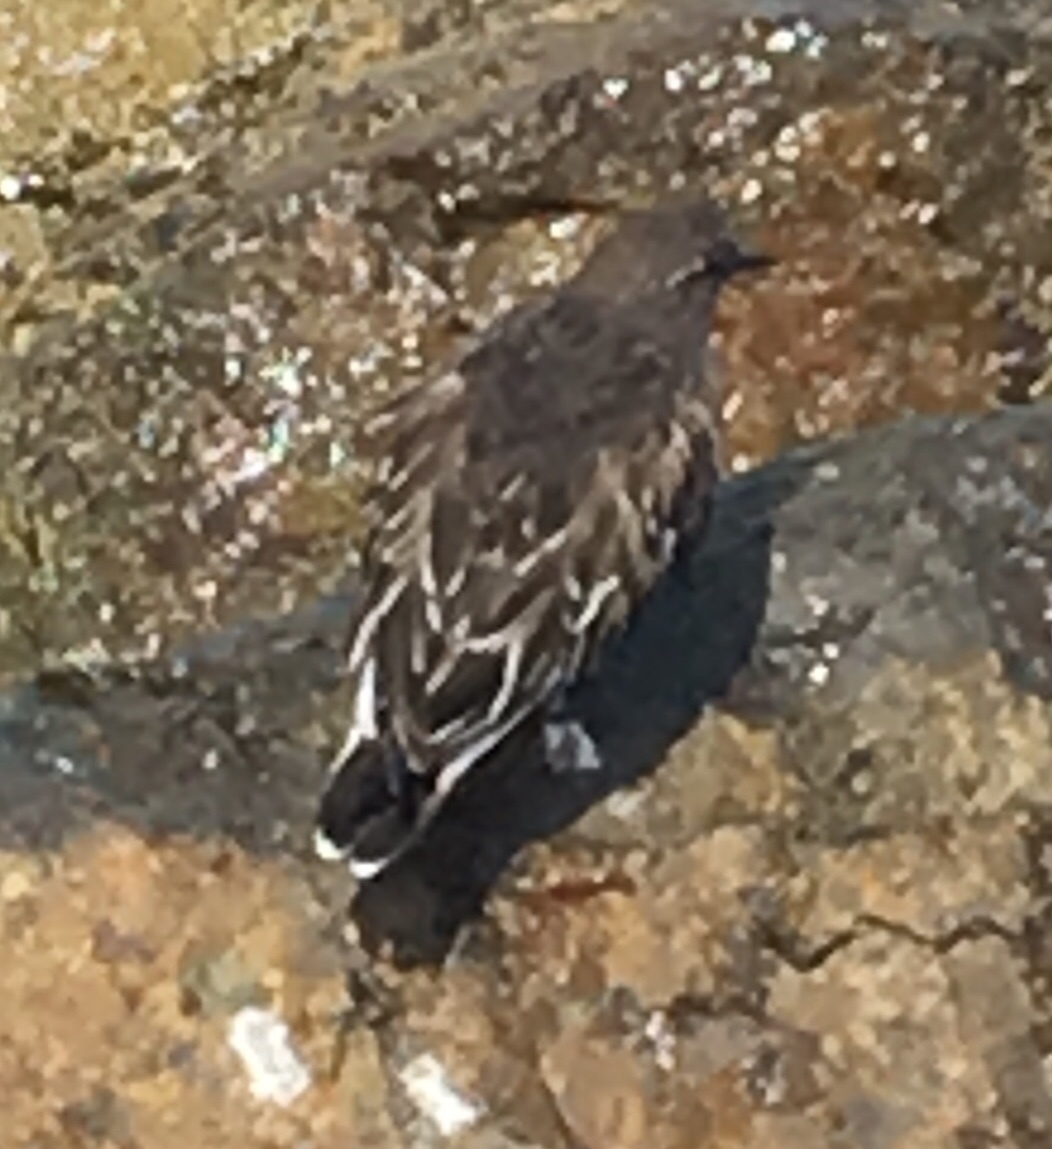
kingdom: Animalia
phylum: Chordata
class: Aves
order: Charadriiformes
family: Scolopacidae
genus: Arenaria
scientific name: Arenaria melanocephala
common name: Black turnstone
